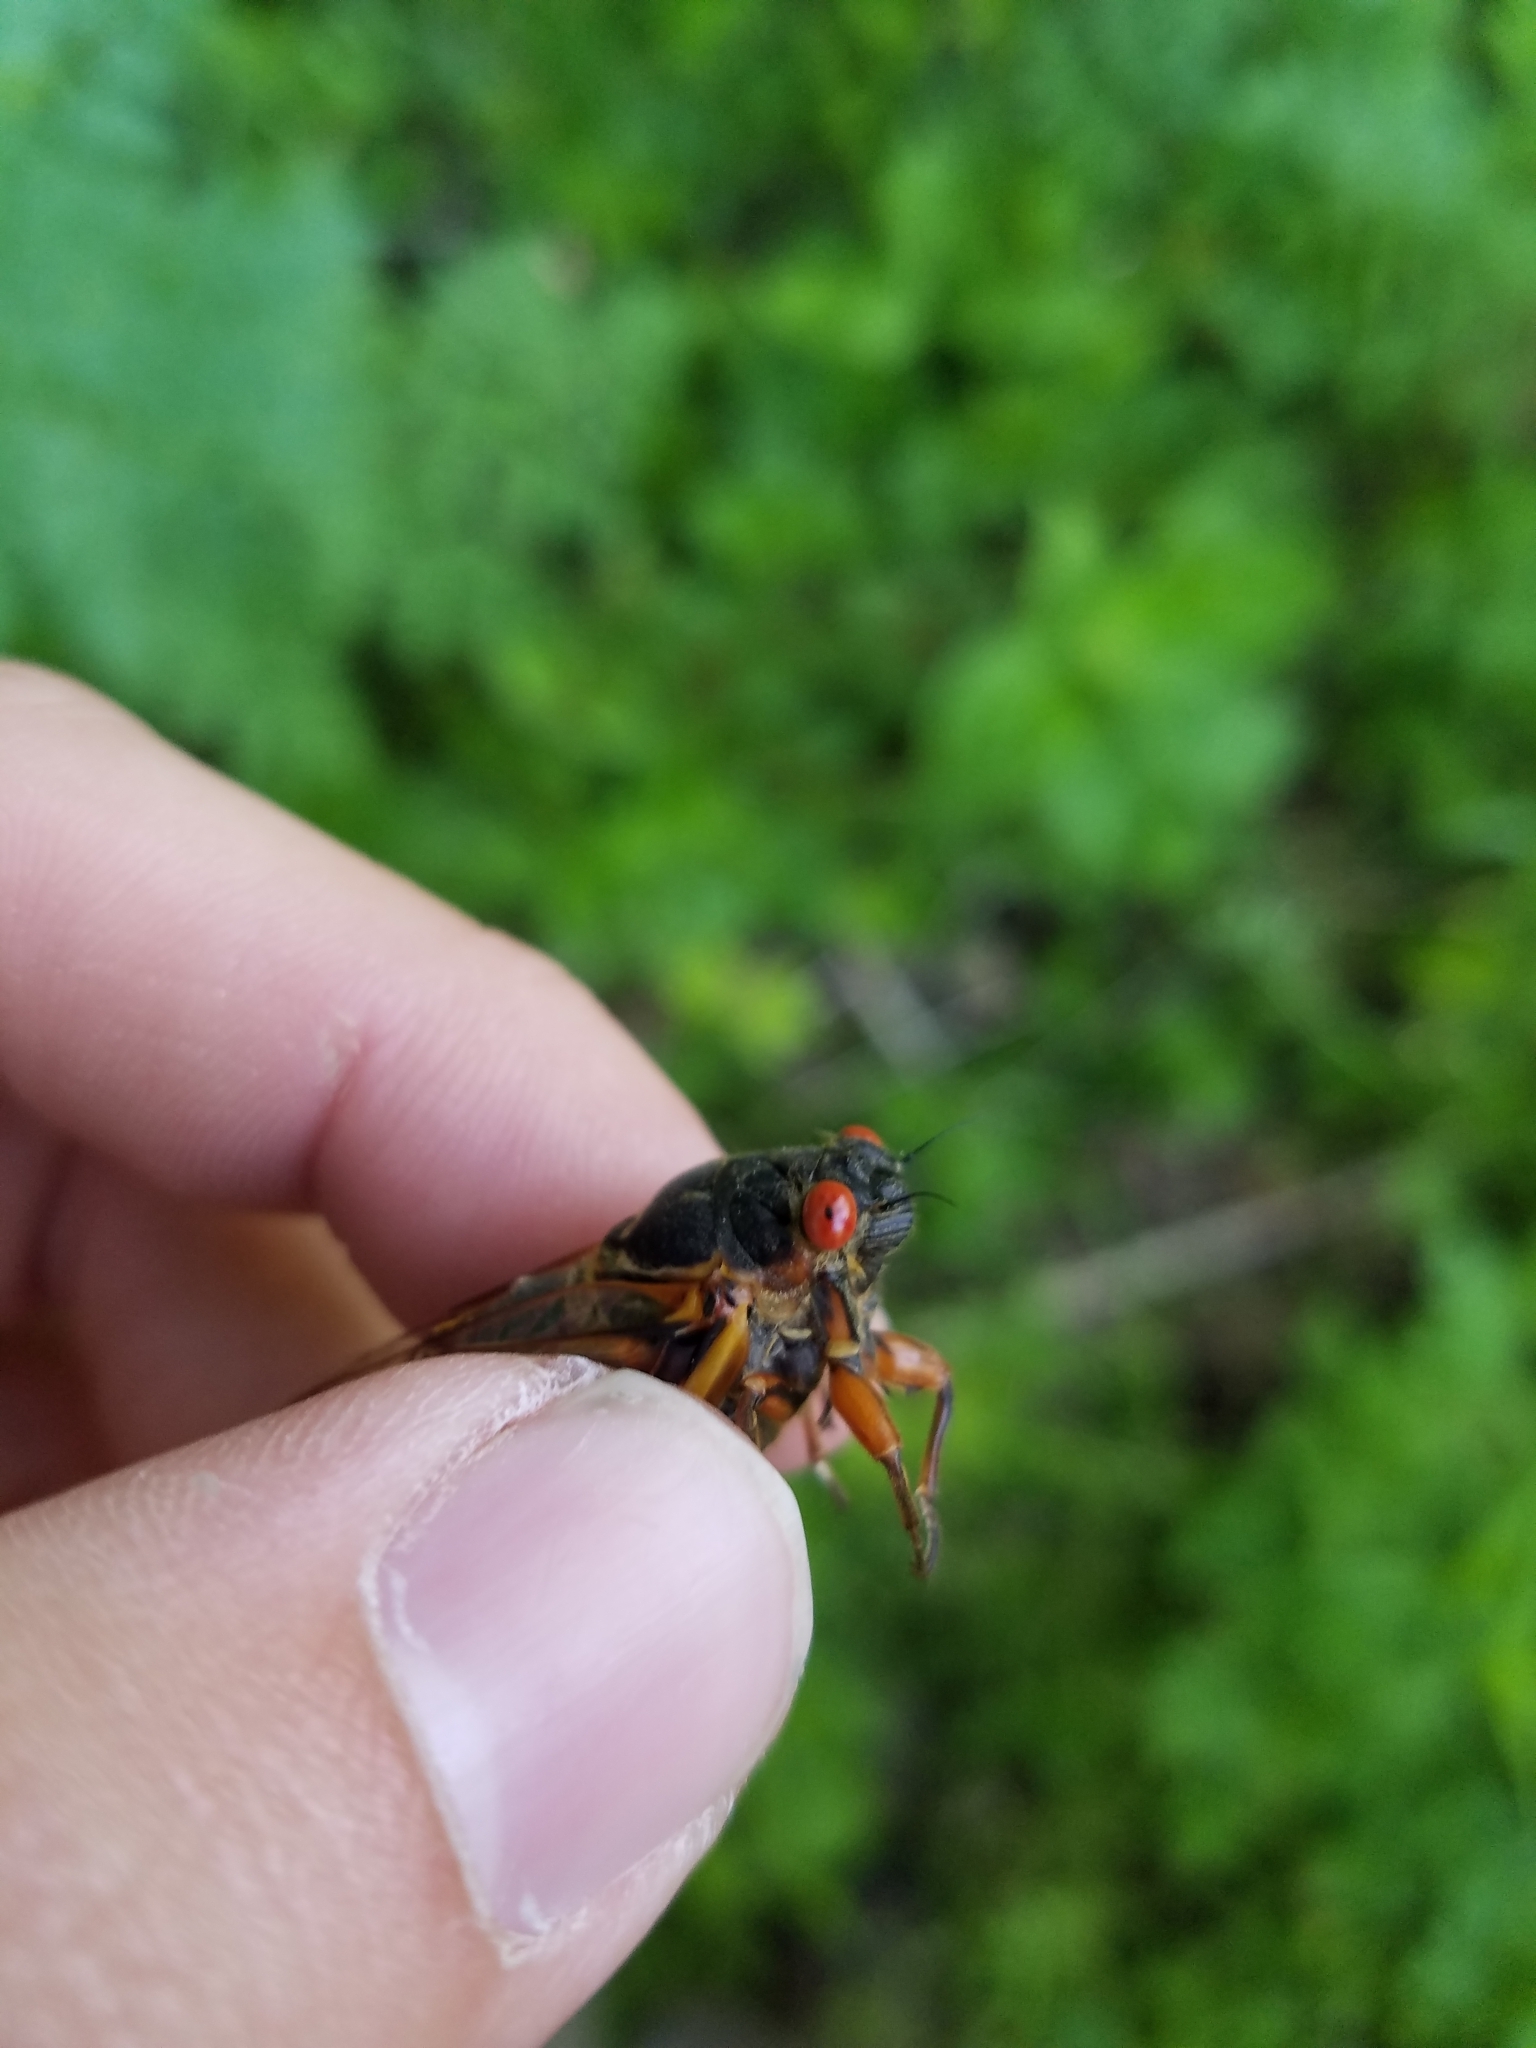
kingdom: Animalia
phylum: Arthropoda
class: Insecta
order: Hemiptera
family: Cicadidae
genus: Magicicada
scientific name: Magicicada septendecim
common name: Periodical cicada
